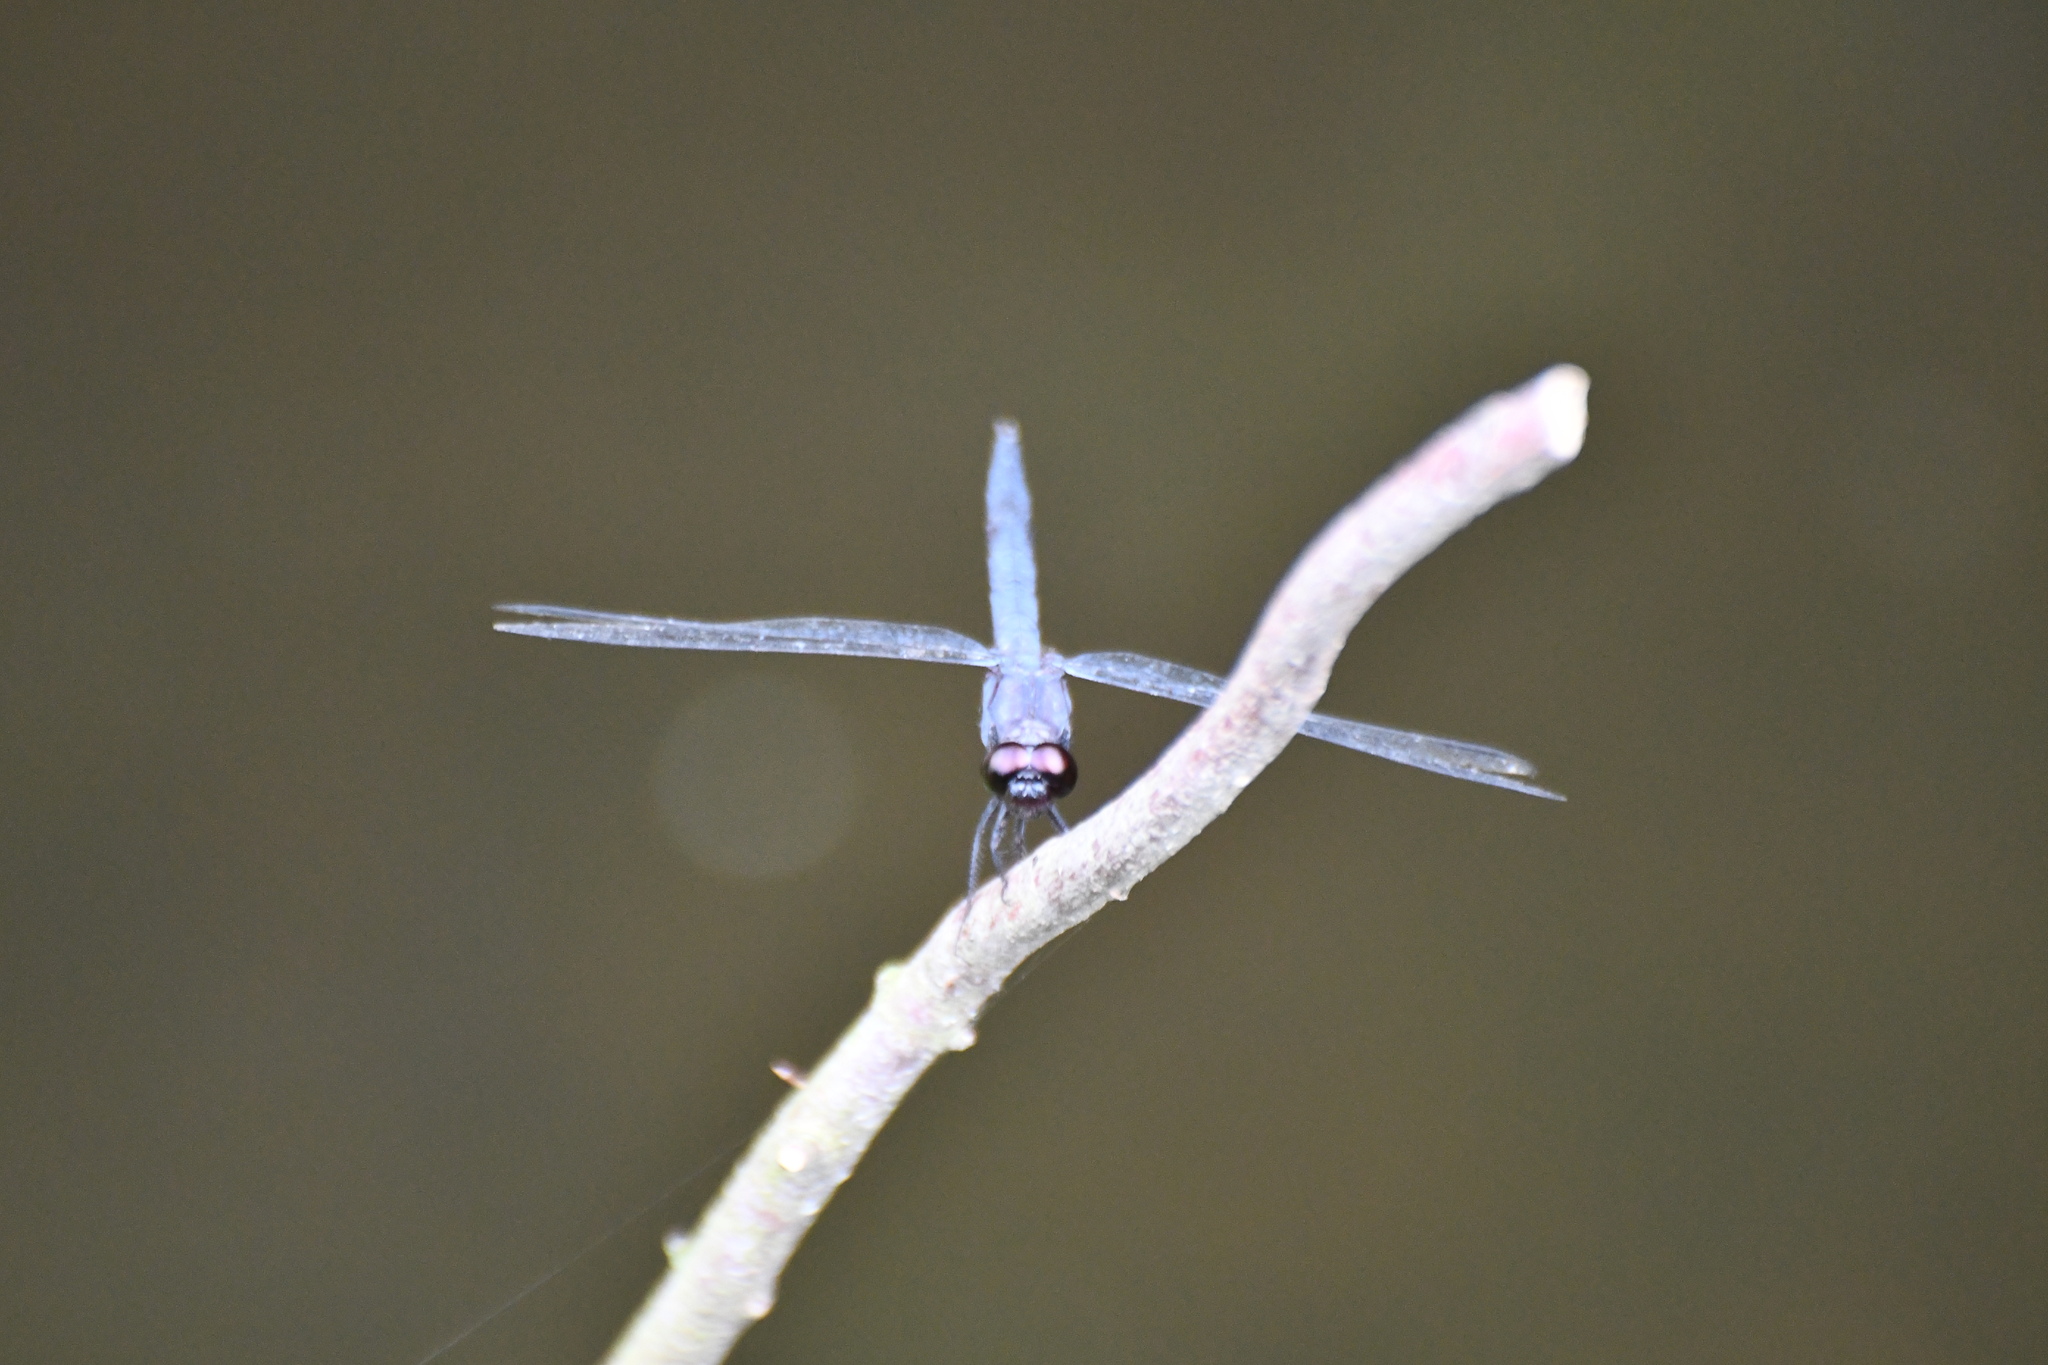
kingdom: Animalia
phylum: Arthropoda
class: Insecta
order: Odonata
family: Libellulidae
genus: Libellula
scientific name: Libellula incesta
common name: Slaty skimmer
